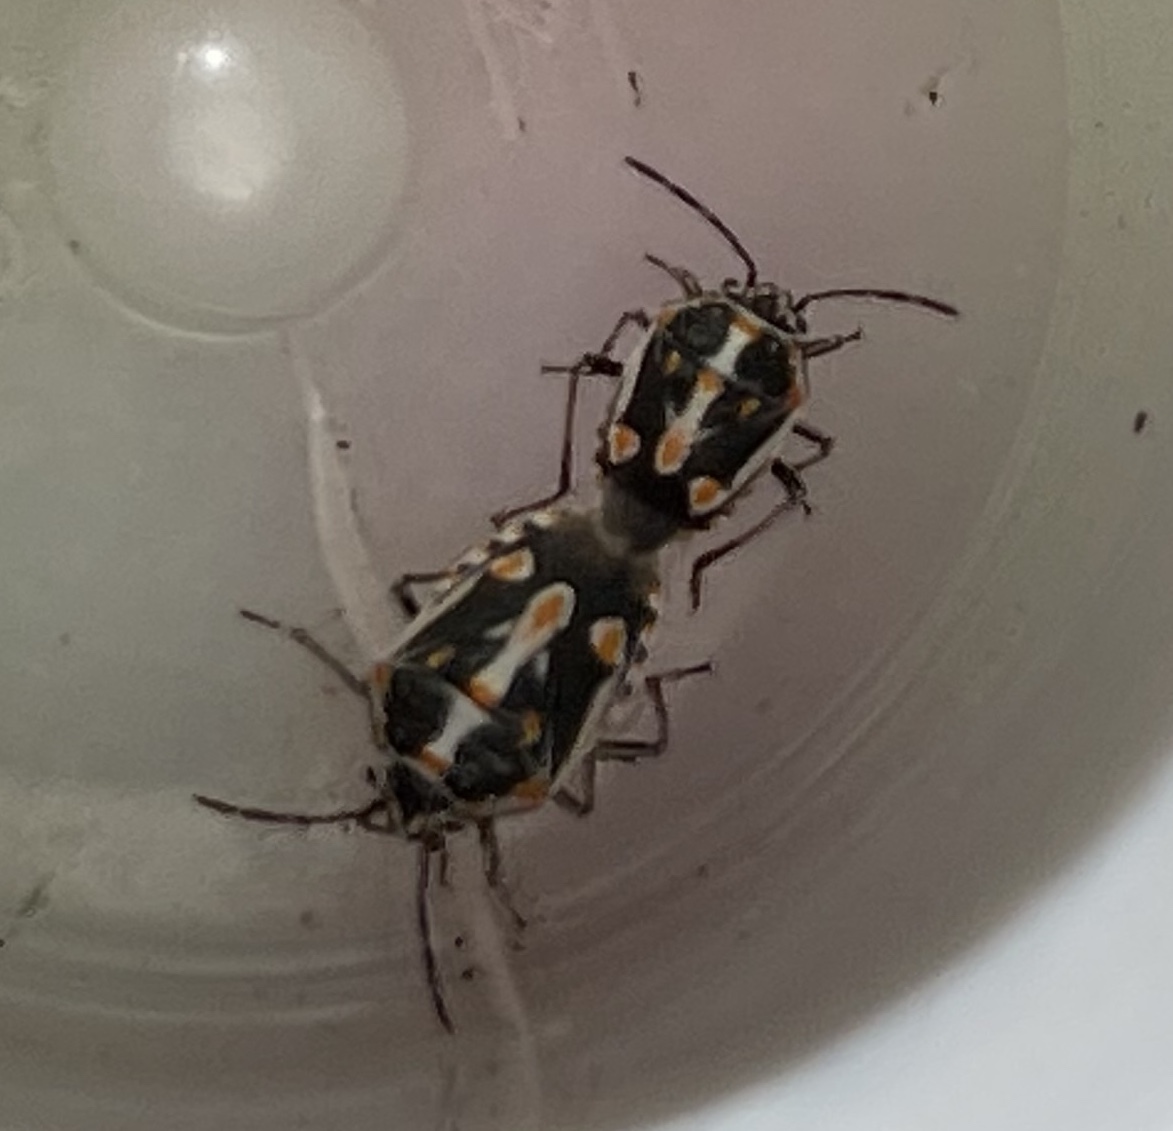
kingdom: Animalia
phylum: Arthropoda
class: Insecta
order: Hemiptera
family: Pentatomidae
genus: Bagrada
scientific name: Bagrada hilaris
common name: Bagrada bug
